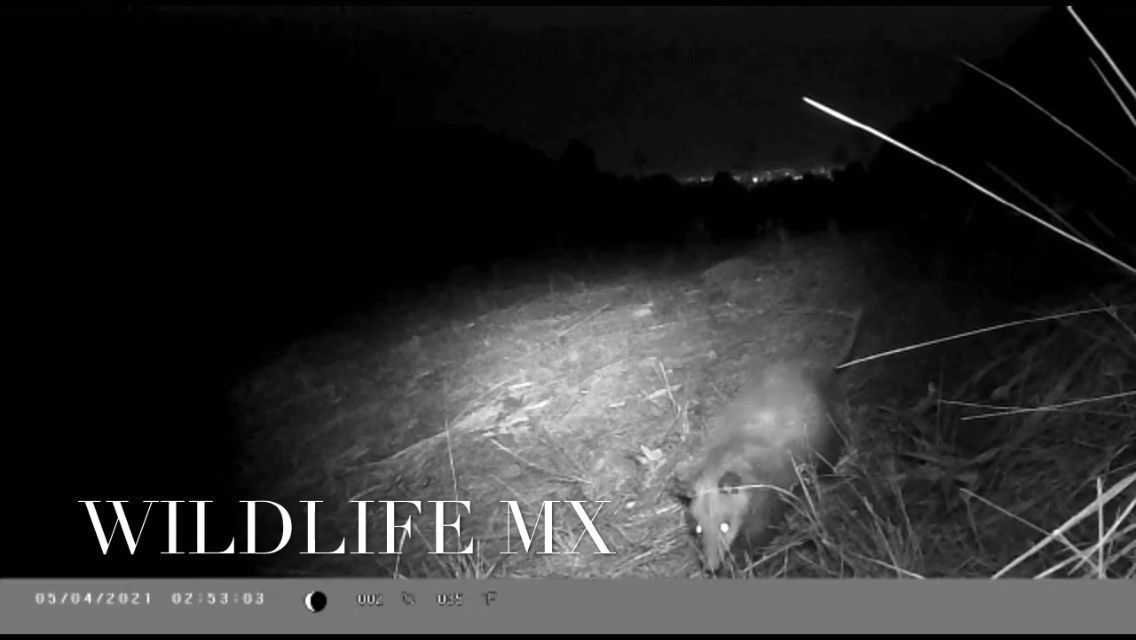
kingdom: Animalia
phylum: Chordata
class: Mammalia
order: Didelphimorphia
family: Didelphidae
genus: Didelphis
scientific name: Didelphis virginiana
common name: Virginia opossum
